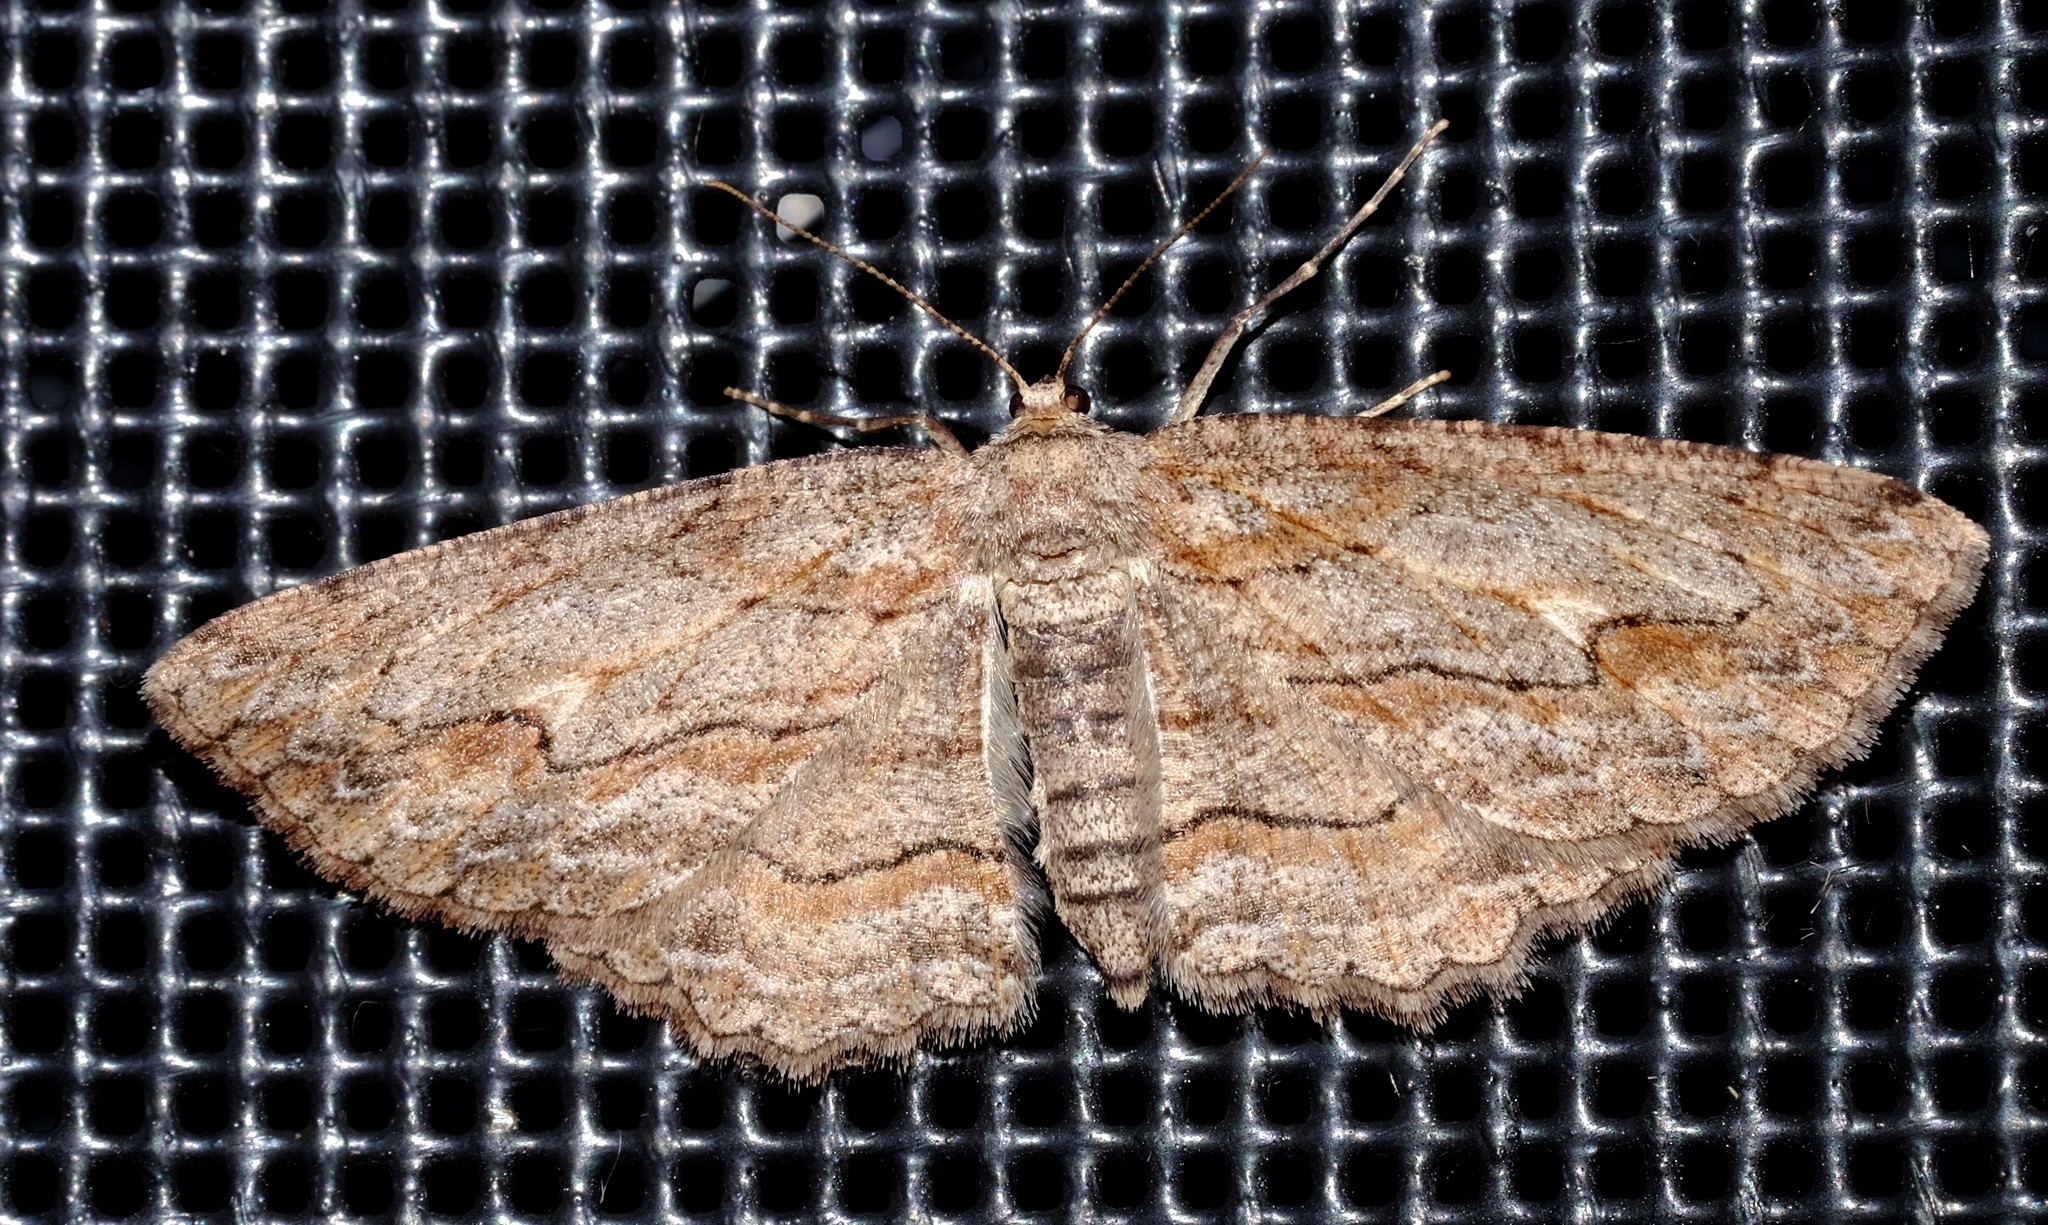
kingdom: Animalia
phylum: Arthropoda
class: Insecta
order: Lepidoptera
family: Geometridae
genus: Ectropis
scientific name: Ectropis excursaria
